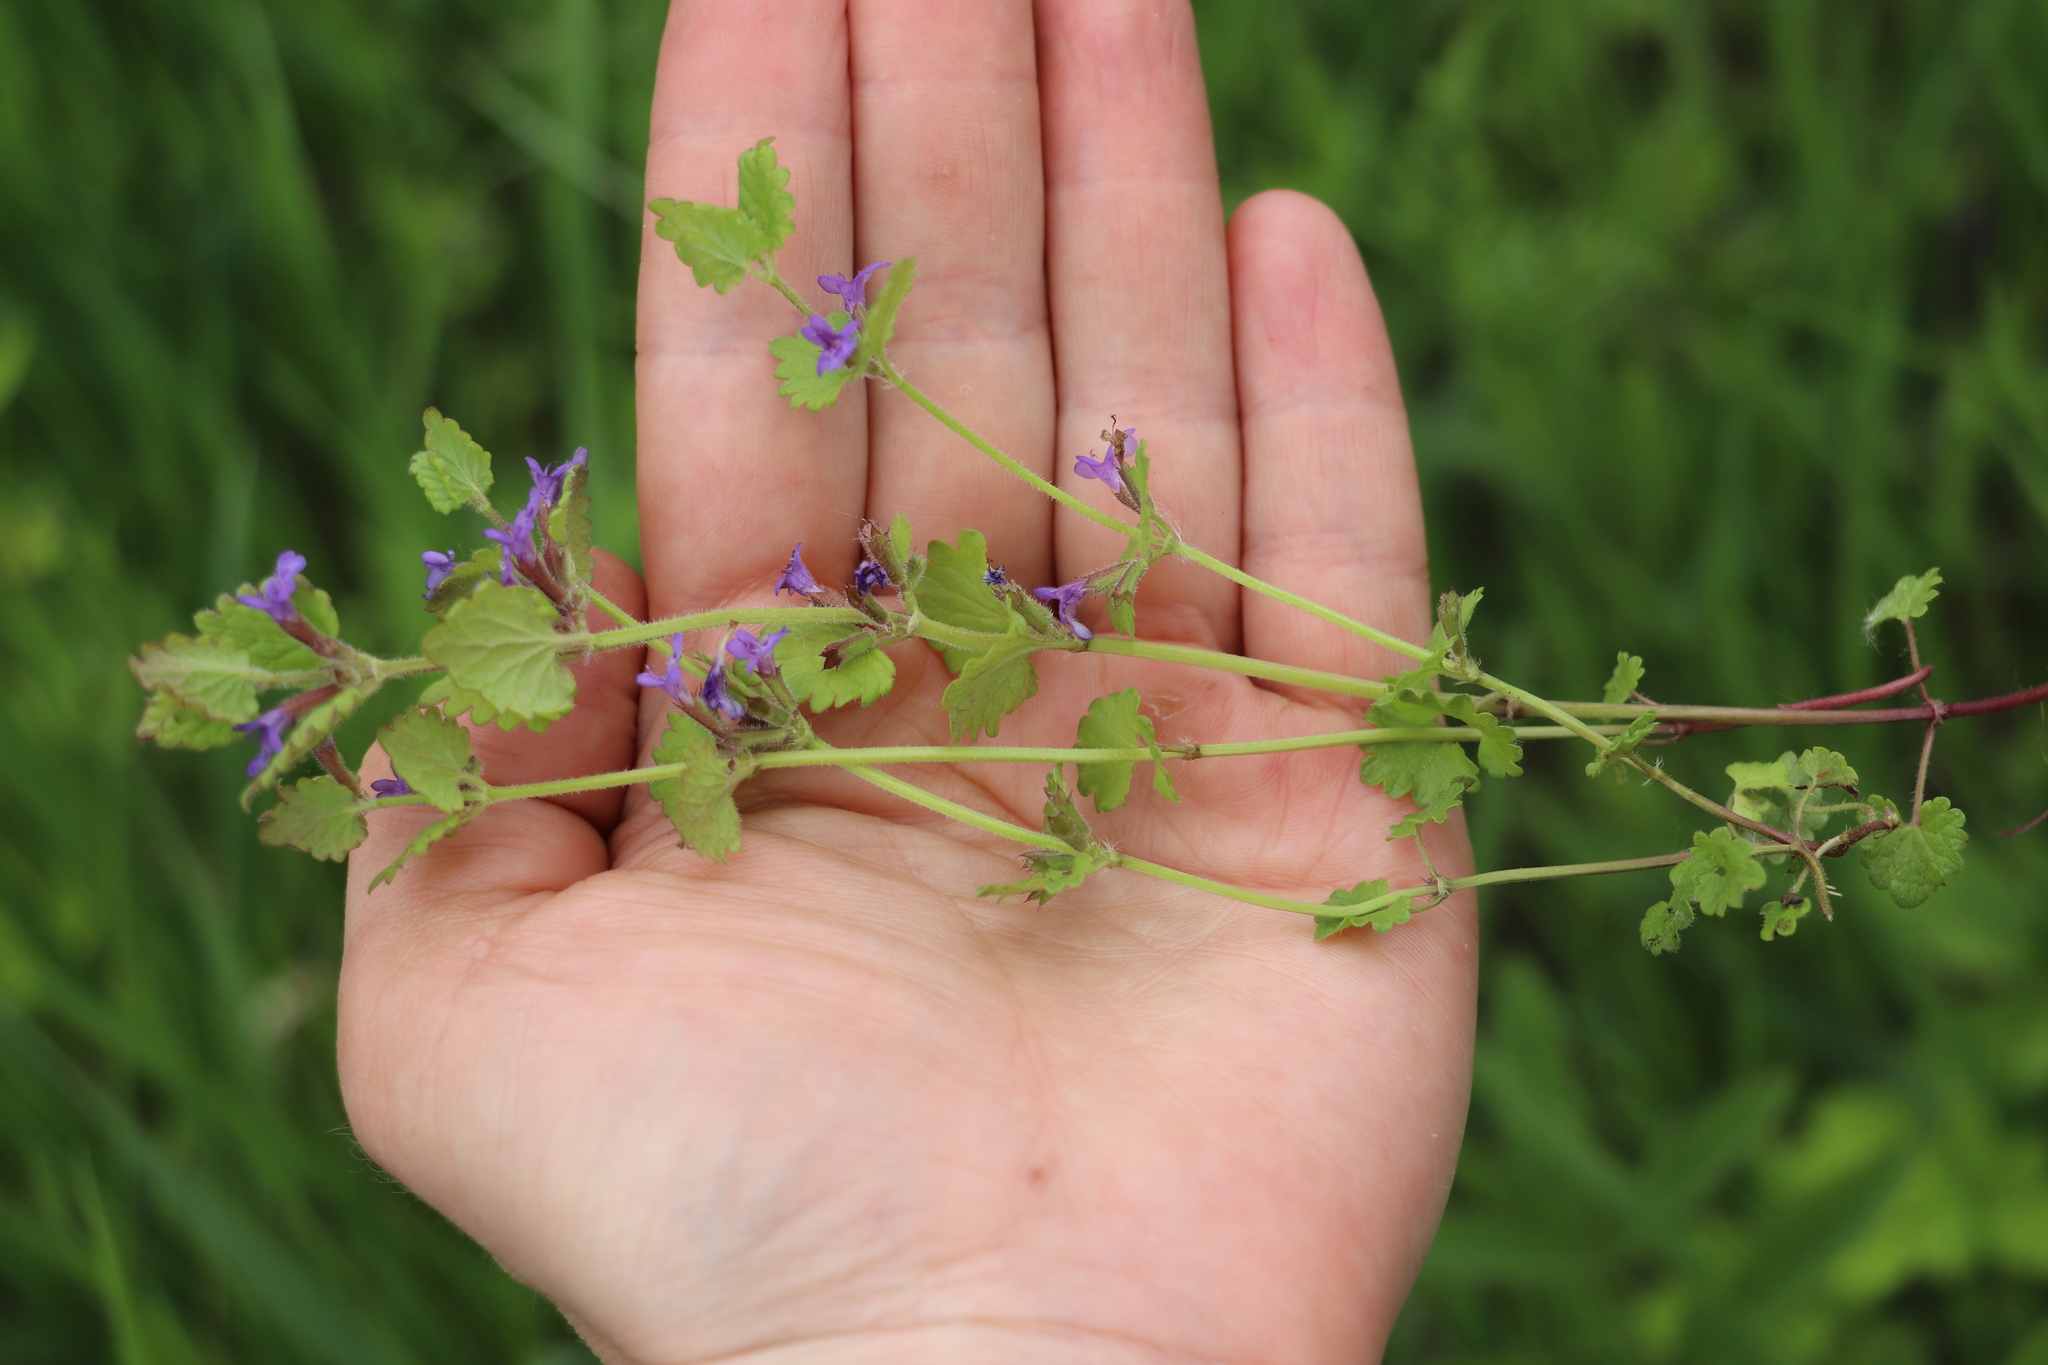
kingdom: Plantae
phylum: Tracheophyta
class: Magnoliopsida
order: Lamiales
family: Lamiaceae
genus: Glechoma
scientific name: Glechoma hederacea
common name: Ground ivy
